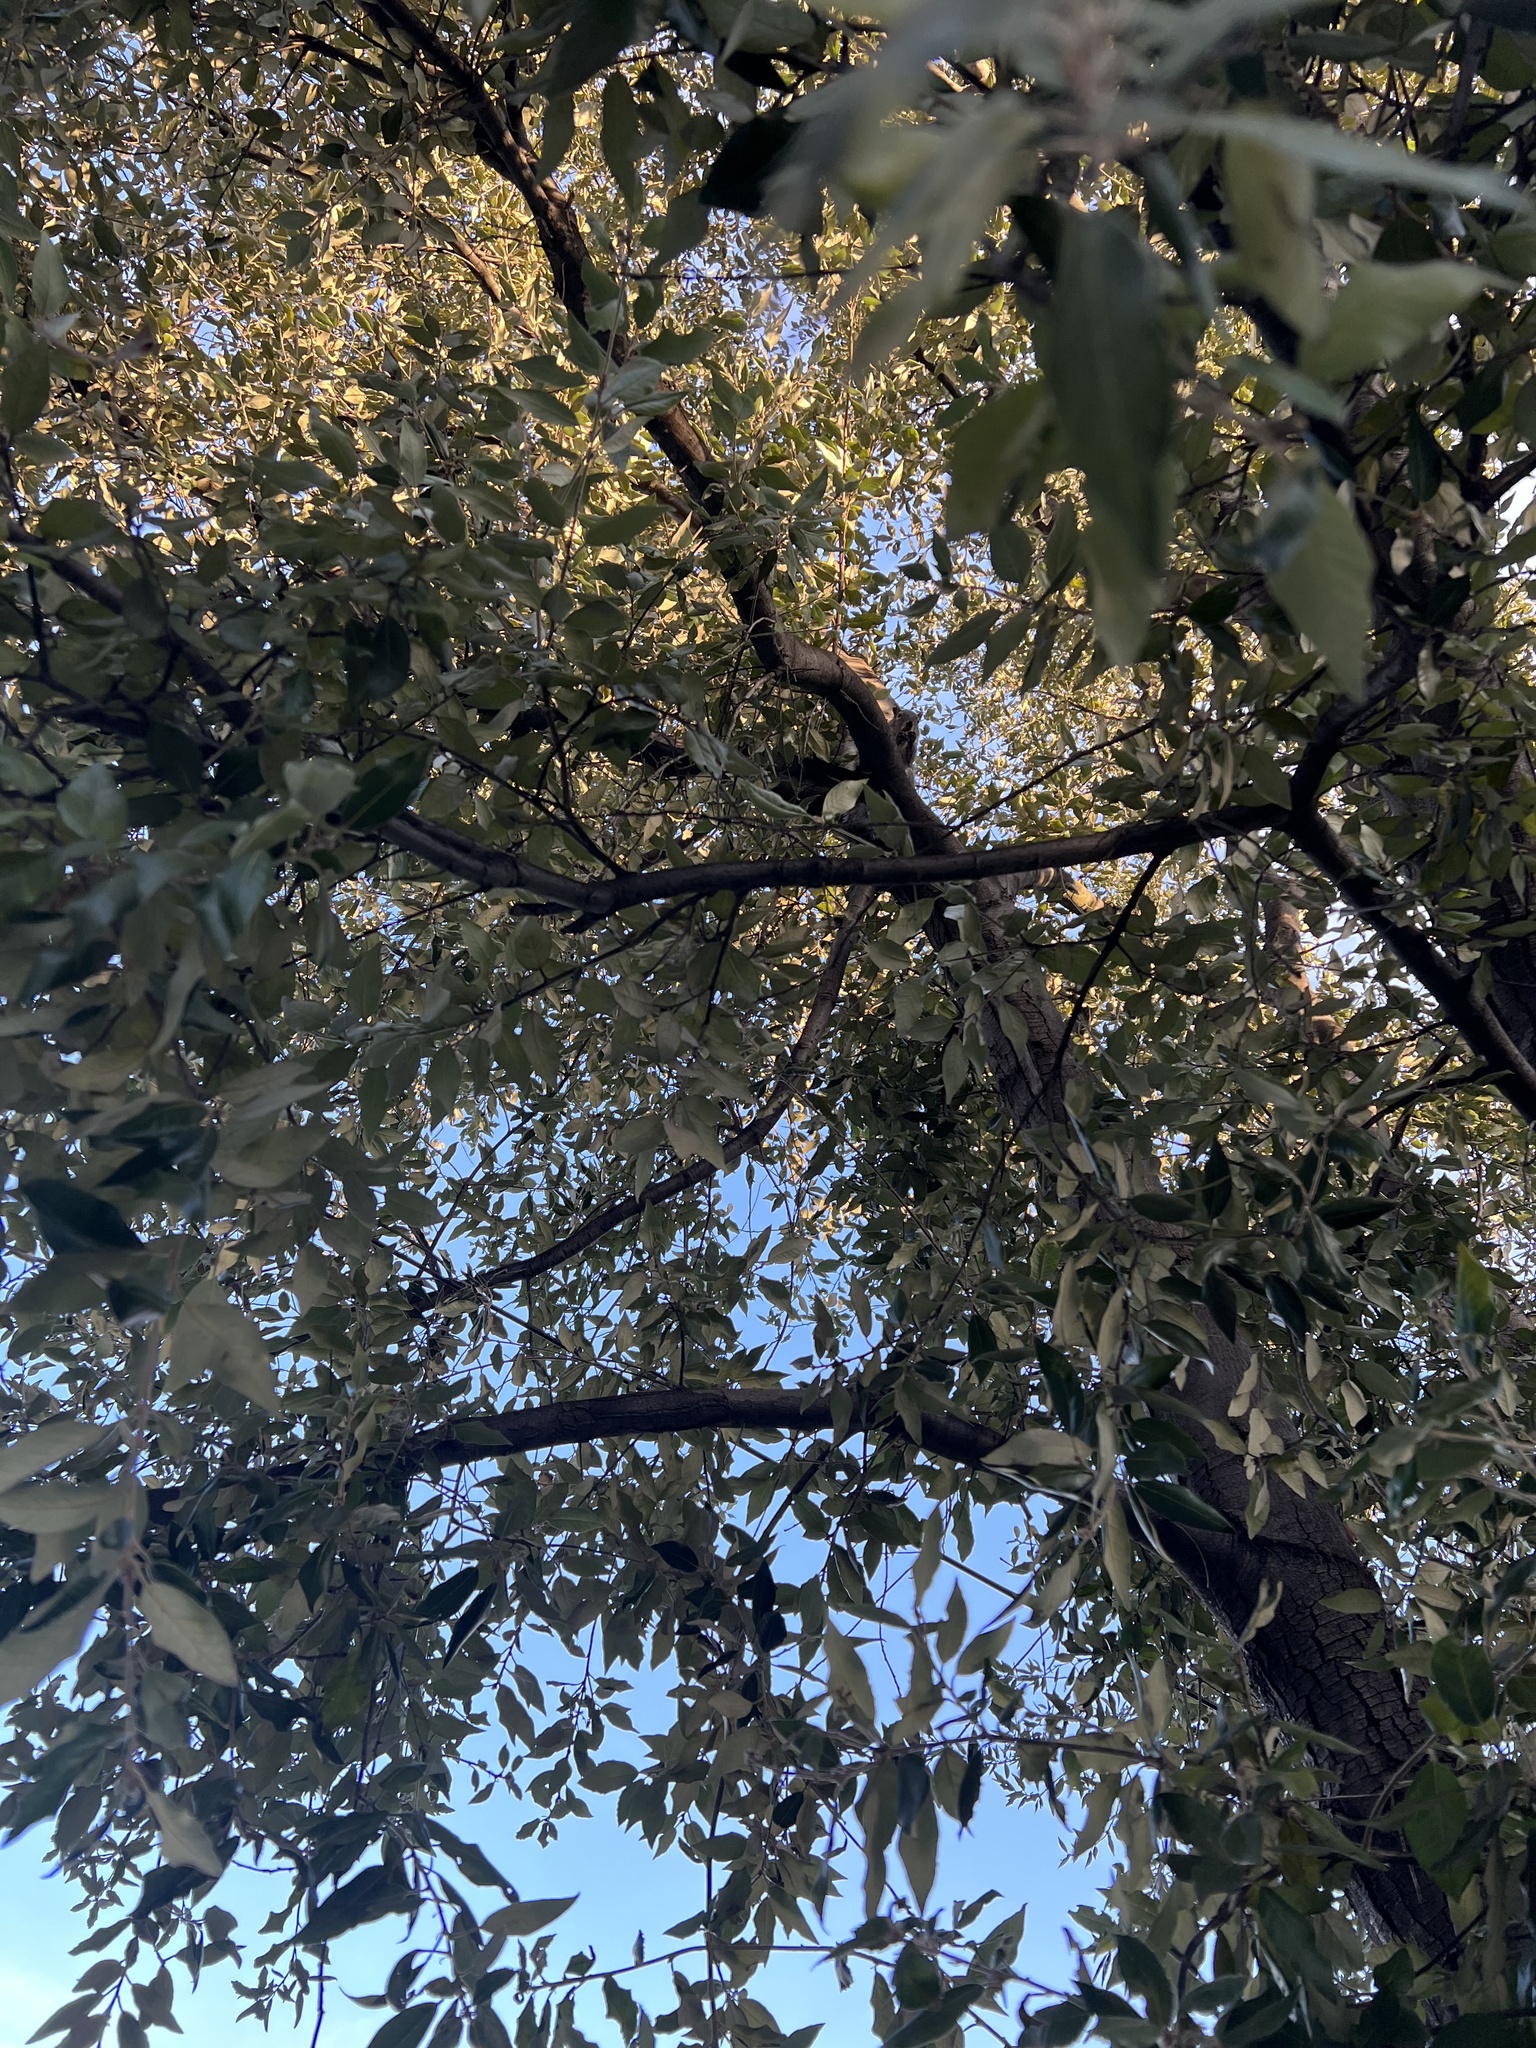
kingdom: Animalia
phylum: Chordata
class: Mammalia
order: Rodentia
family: Sciuridae
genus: Sciurus
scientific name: Sciurus griseus
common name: Western gray squirrel
